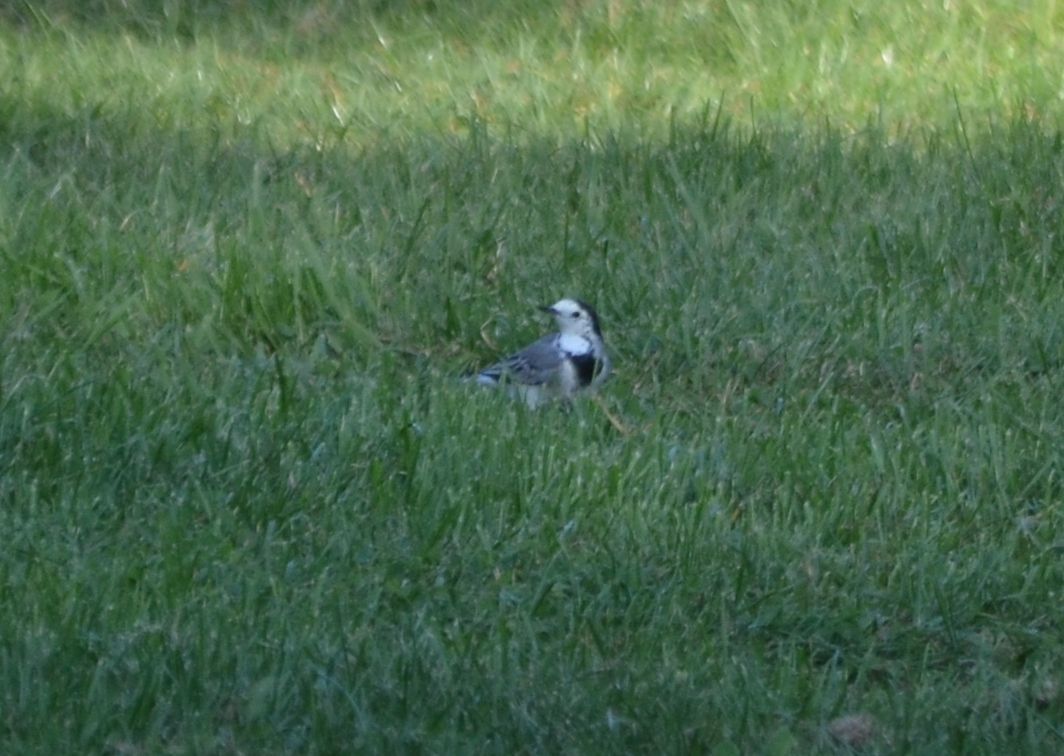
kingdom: Animalia
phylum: Chordata
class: Aves
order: Passeriformes
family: Motacillidae
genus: Motacilla
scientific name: Motacilla alba
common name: White wagtail
